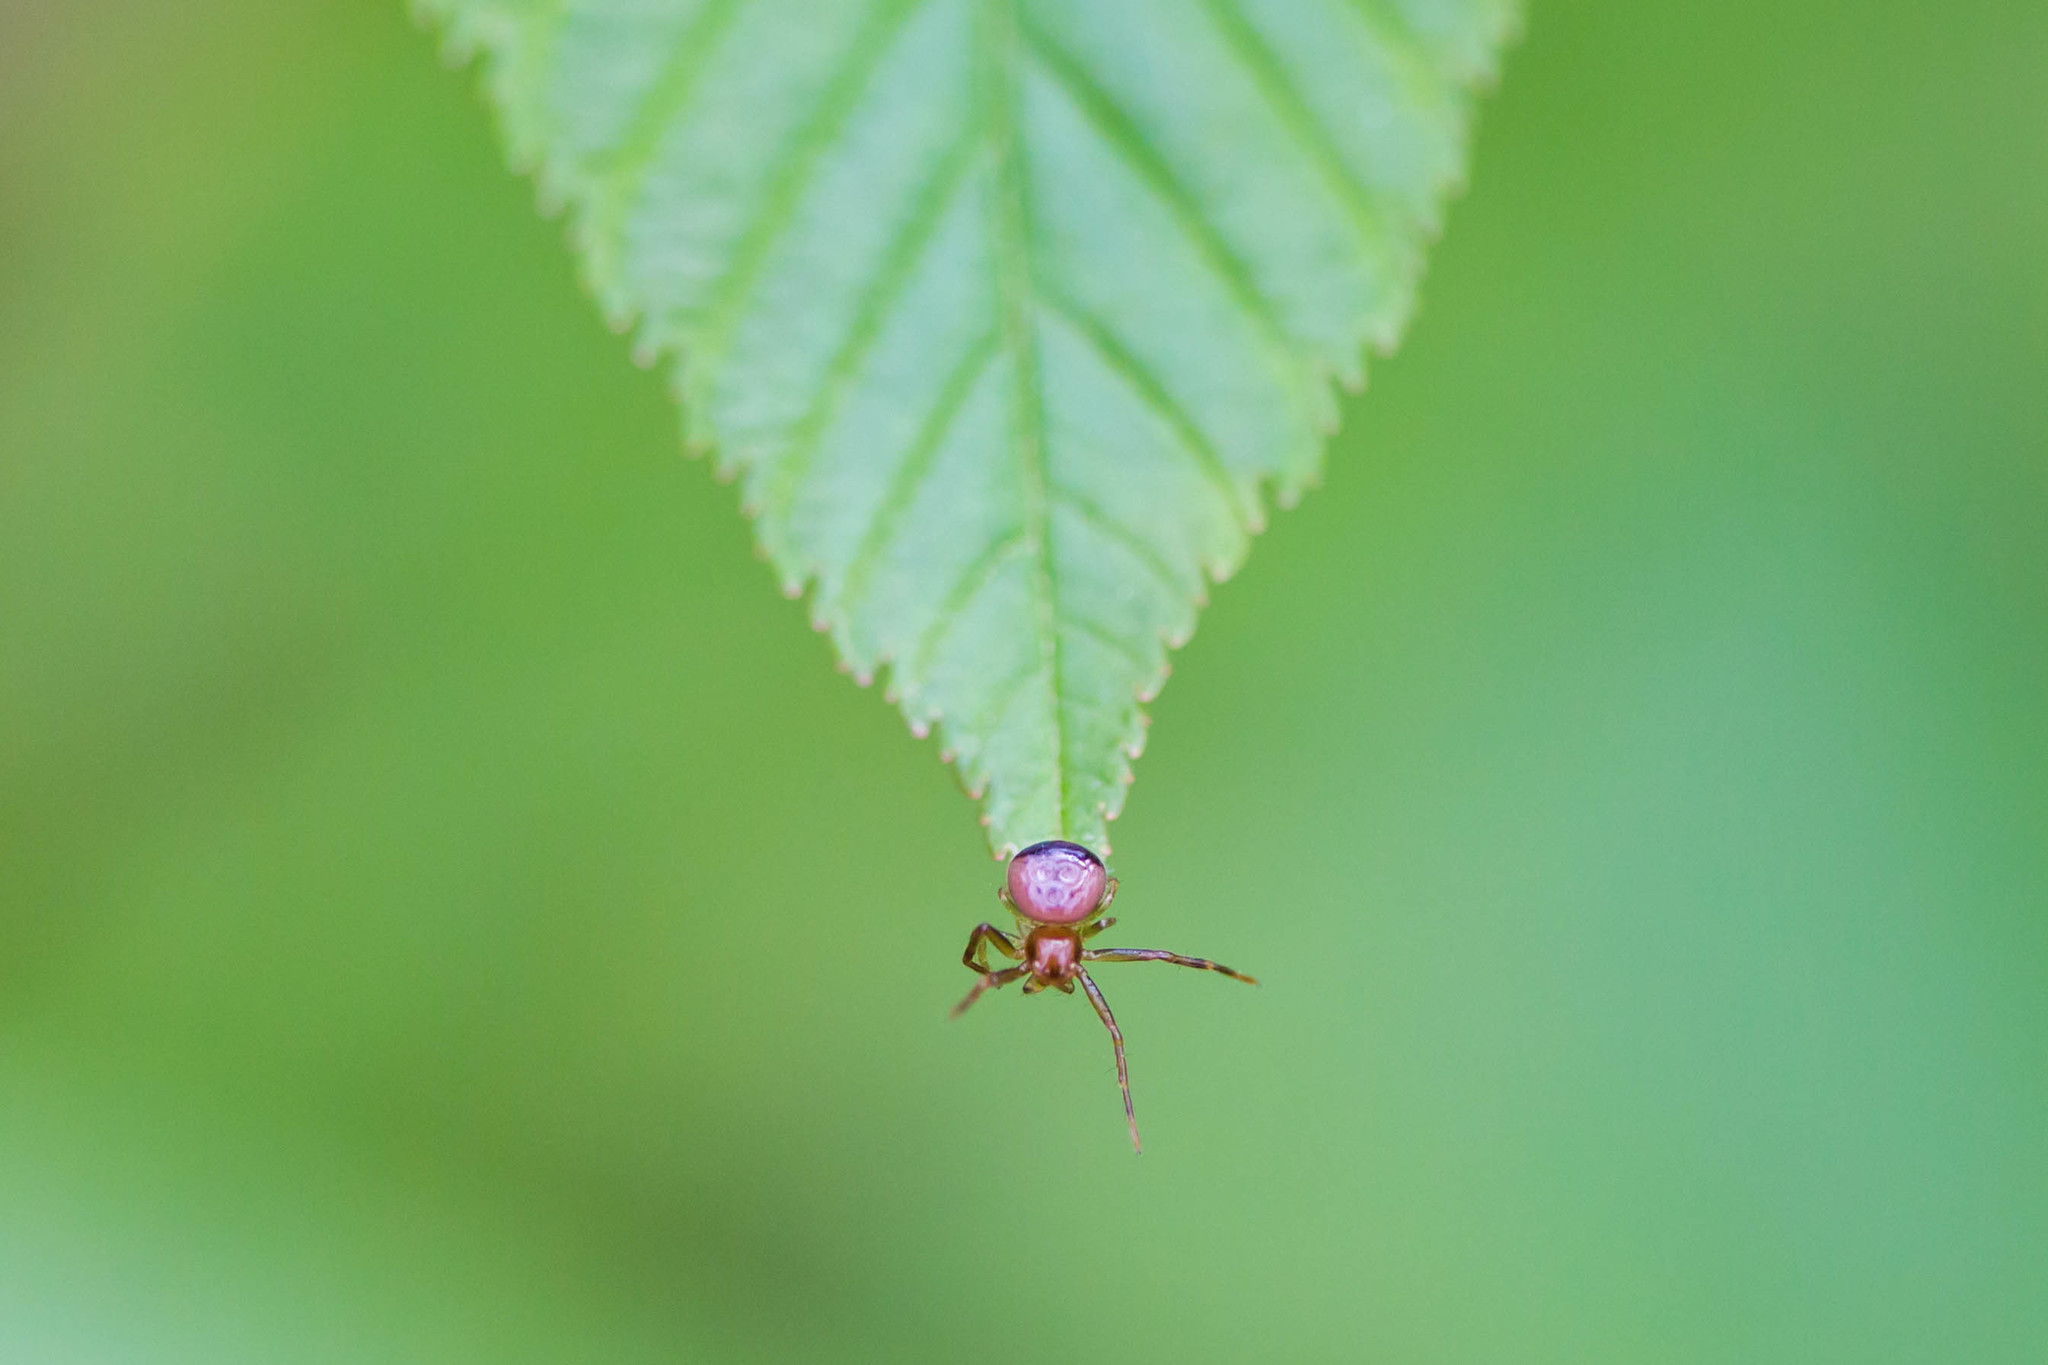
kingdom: Animalia
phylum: Arthropoda
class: Arachnida
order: Araneae
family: Thomisidae
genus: Synema
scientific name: Synema parvulum
